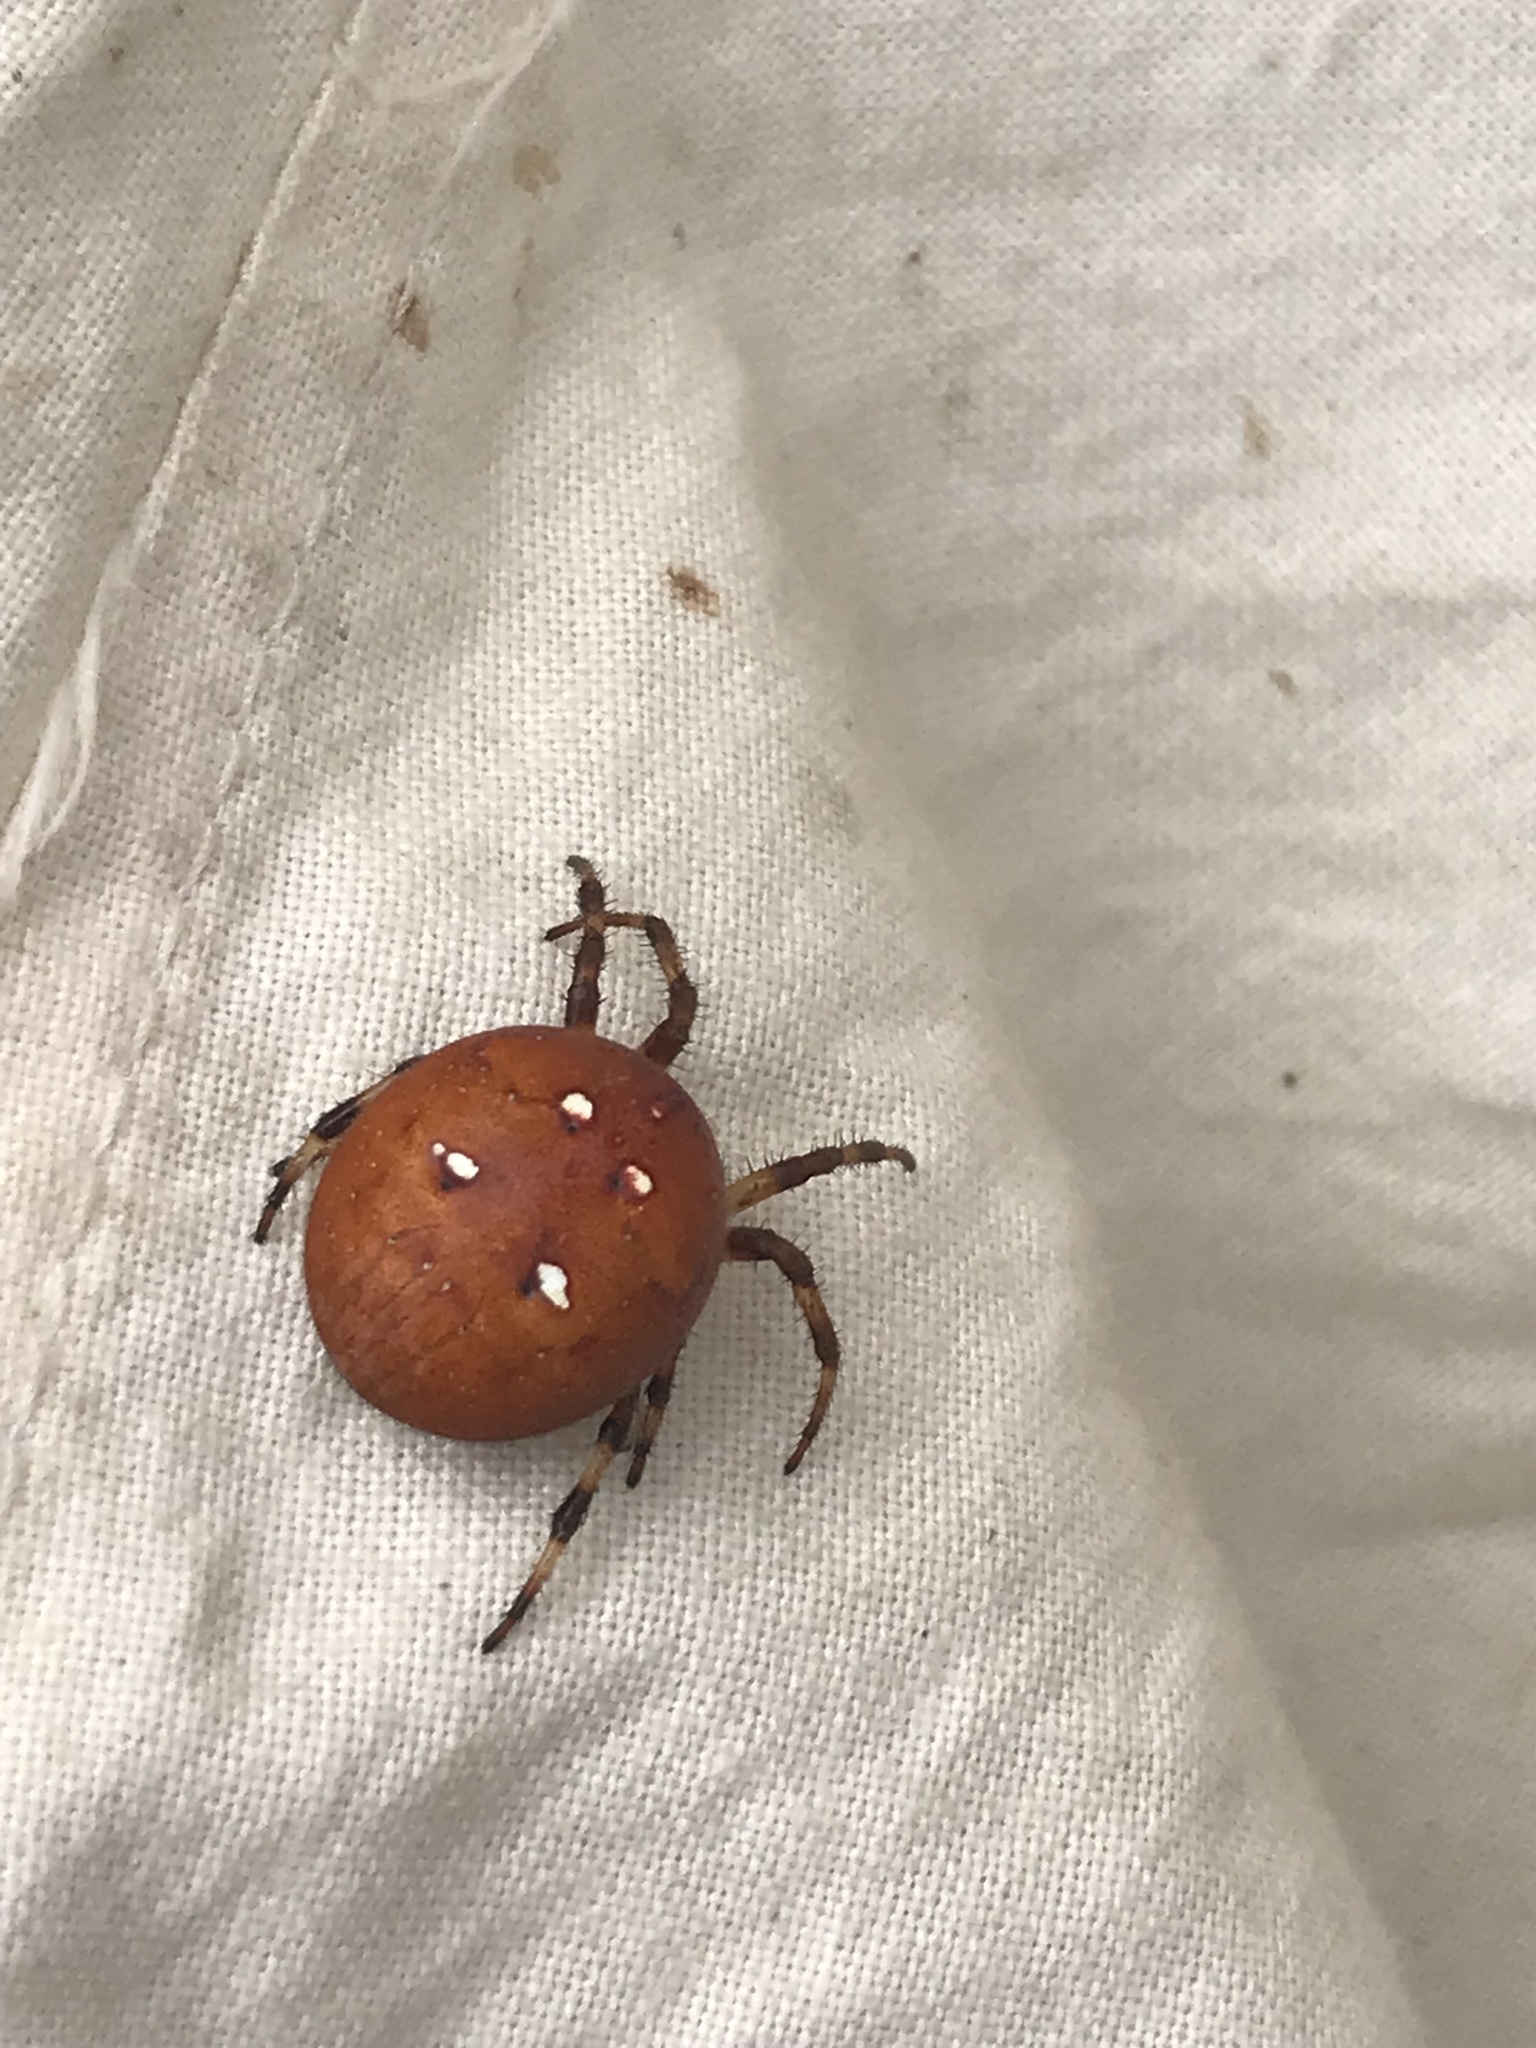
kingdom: Animalia
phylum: Arthropoda
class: Arachnida
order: Araneae
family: Araneidae
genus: Araneus
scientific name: Araneus quadratus
